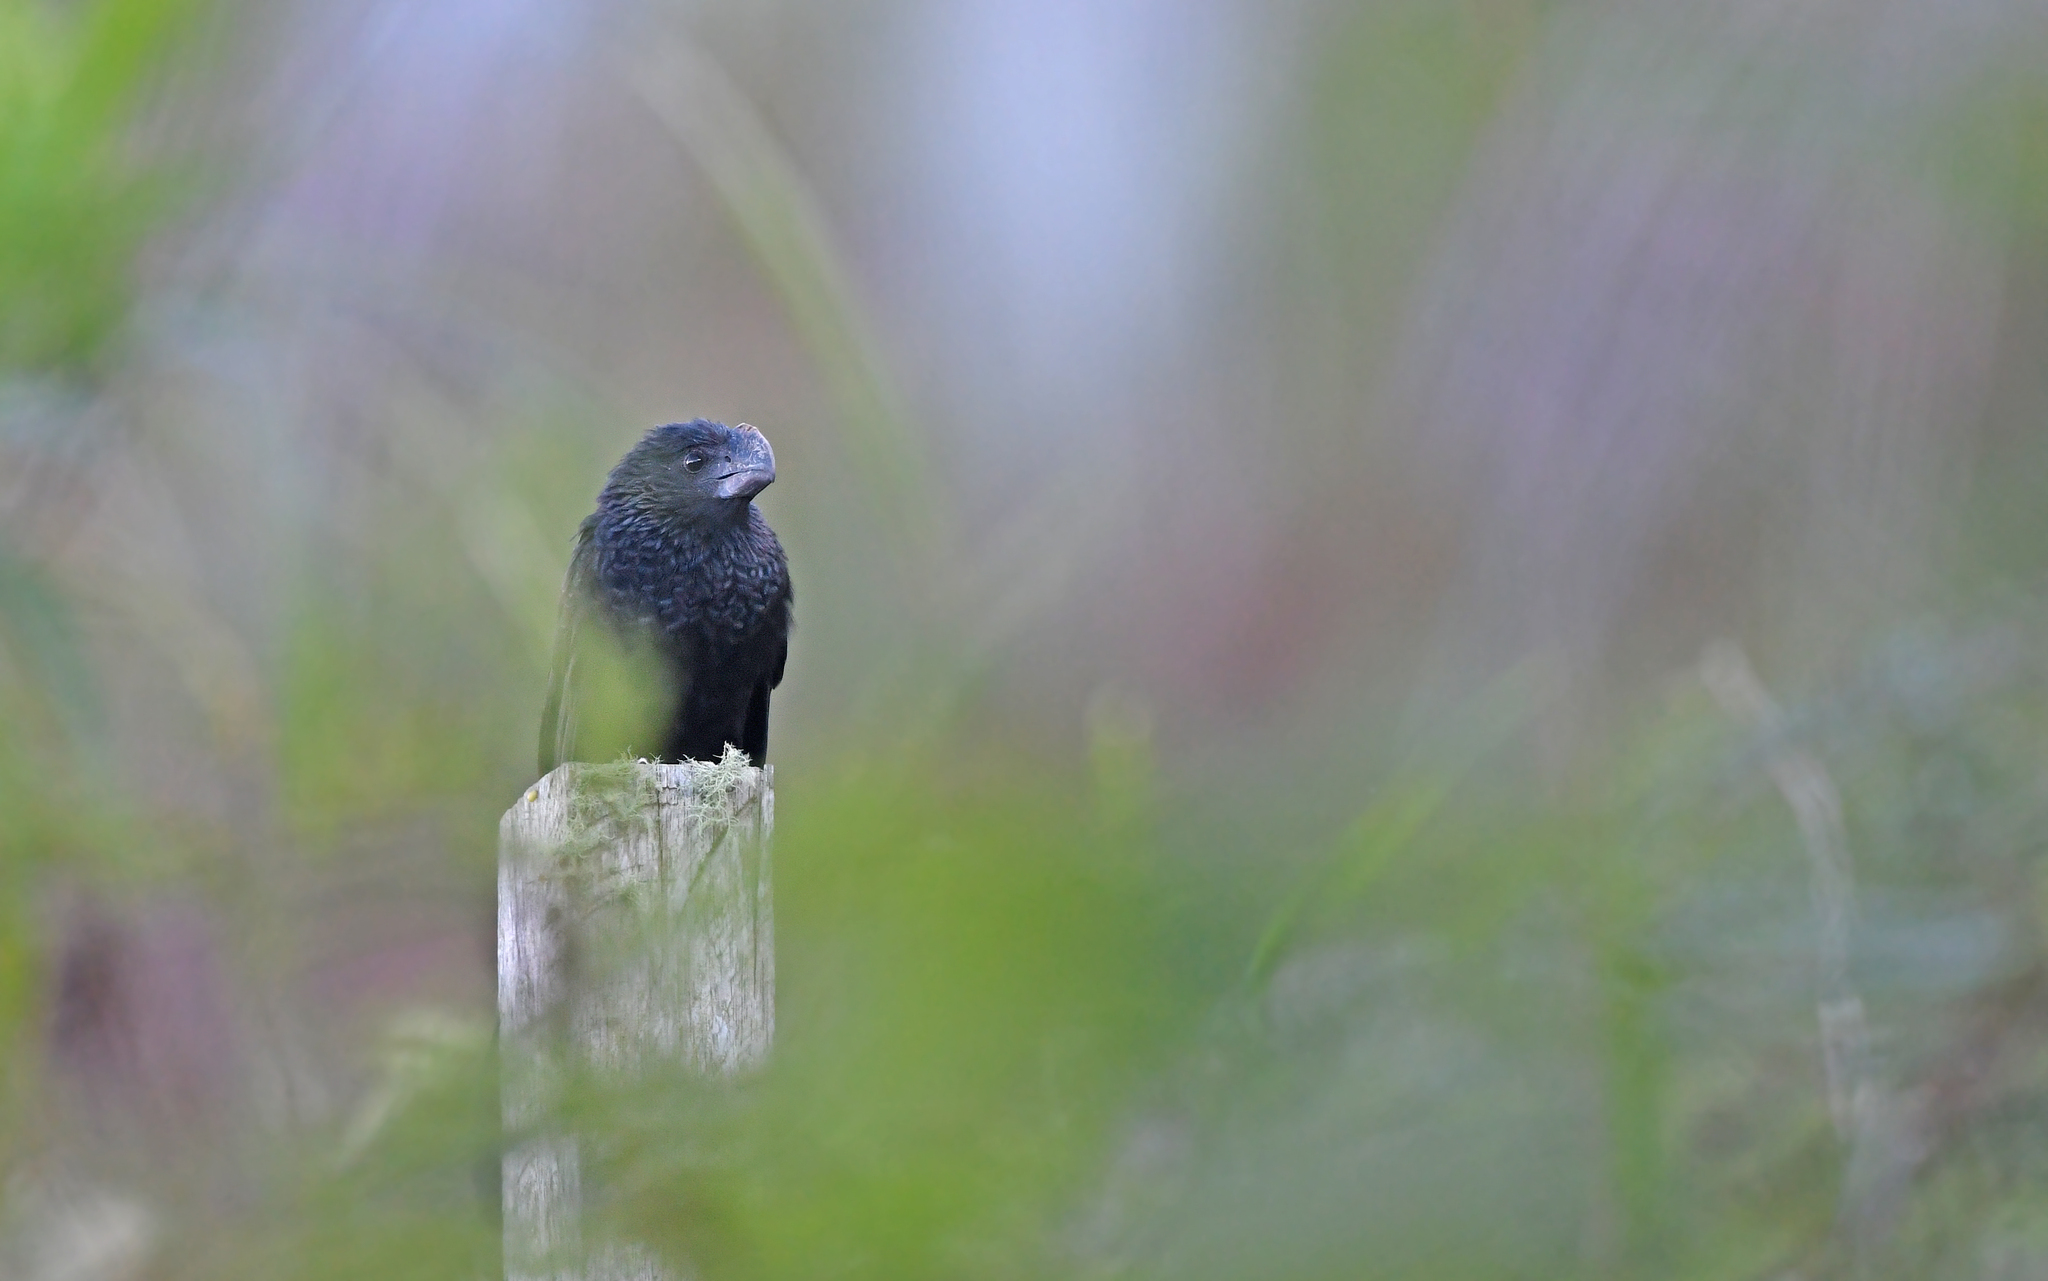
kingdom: Animalia
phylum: Chordata
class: Aves
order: Cuculiformes
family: Cuculidae
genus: Crotophaga
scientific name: Crotophaga ani
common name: Smooth-billed ani
